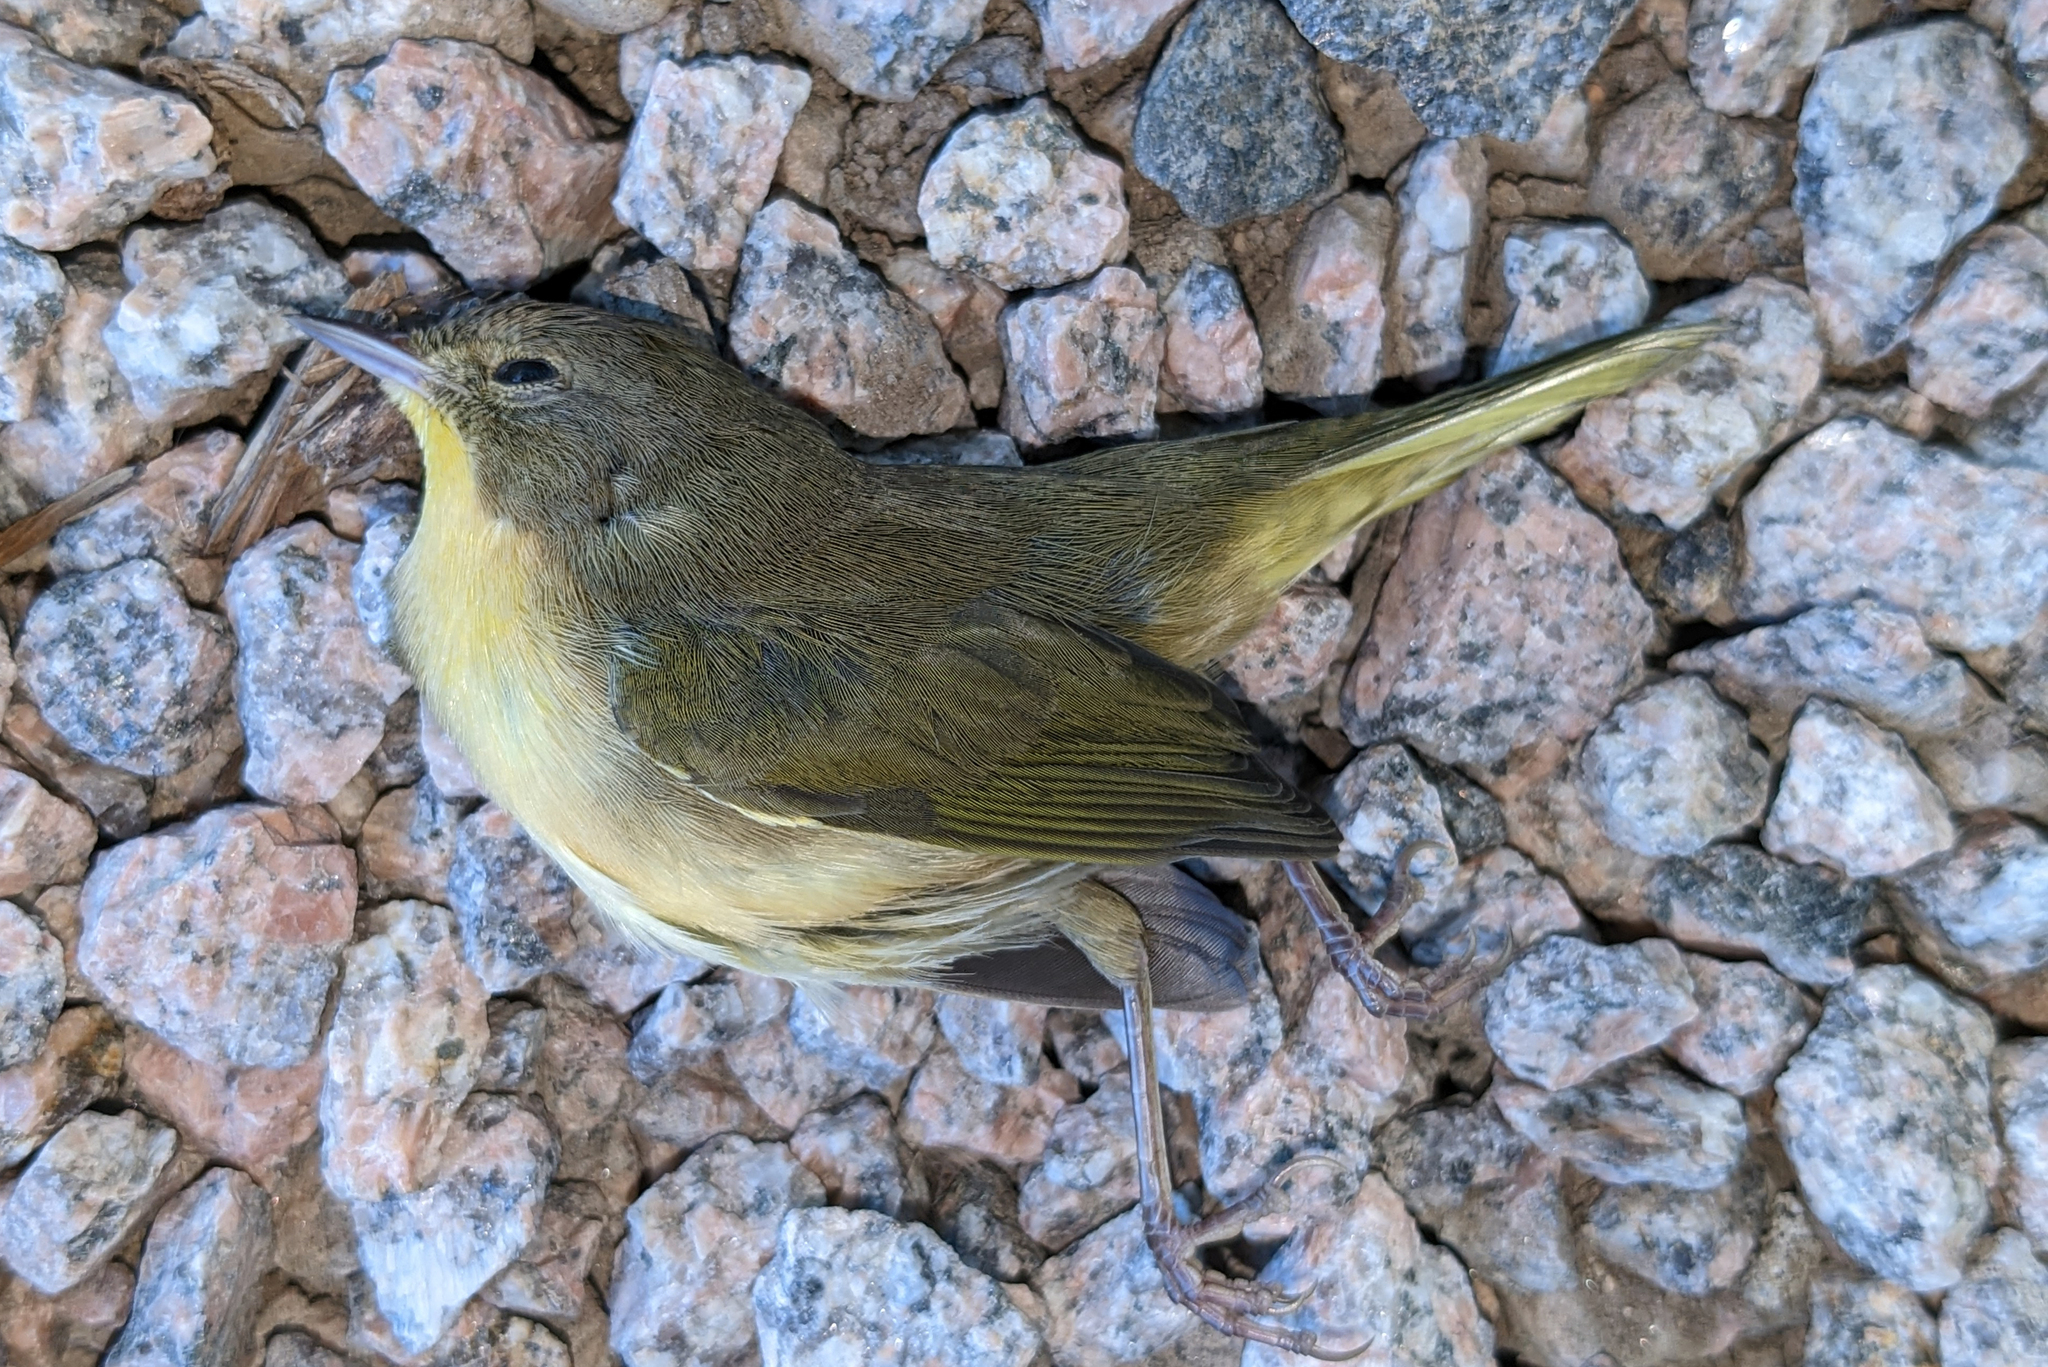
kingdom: Animalia
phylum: Chordata
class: Aves
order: Passeriformes
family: Parulidae
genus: Geothlypis
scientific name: Geothlypis trichas
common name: Common yellowthroat
